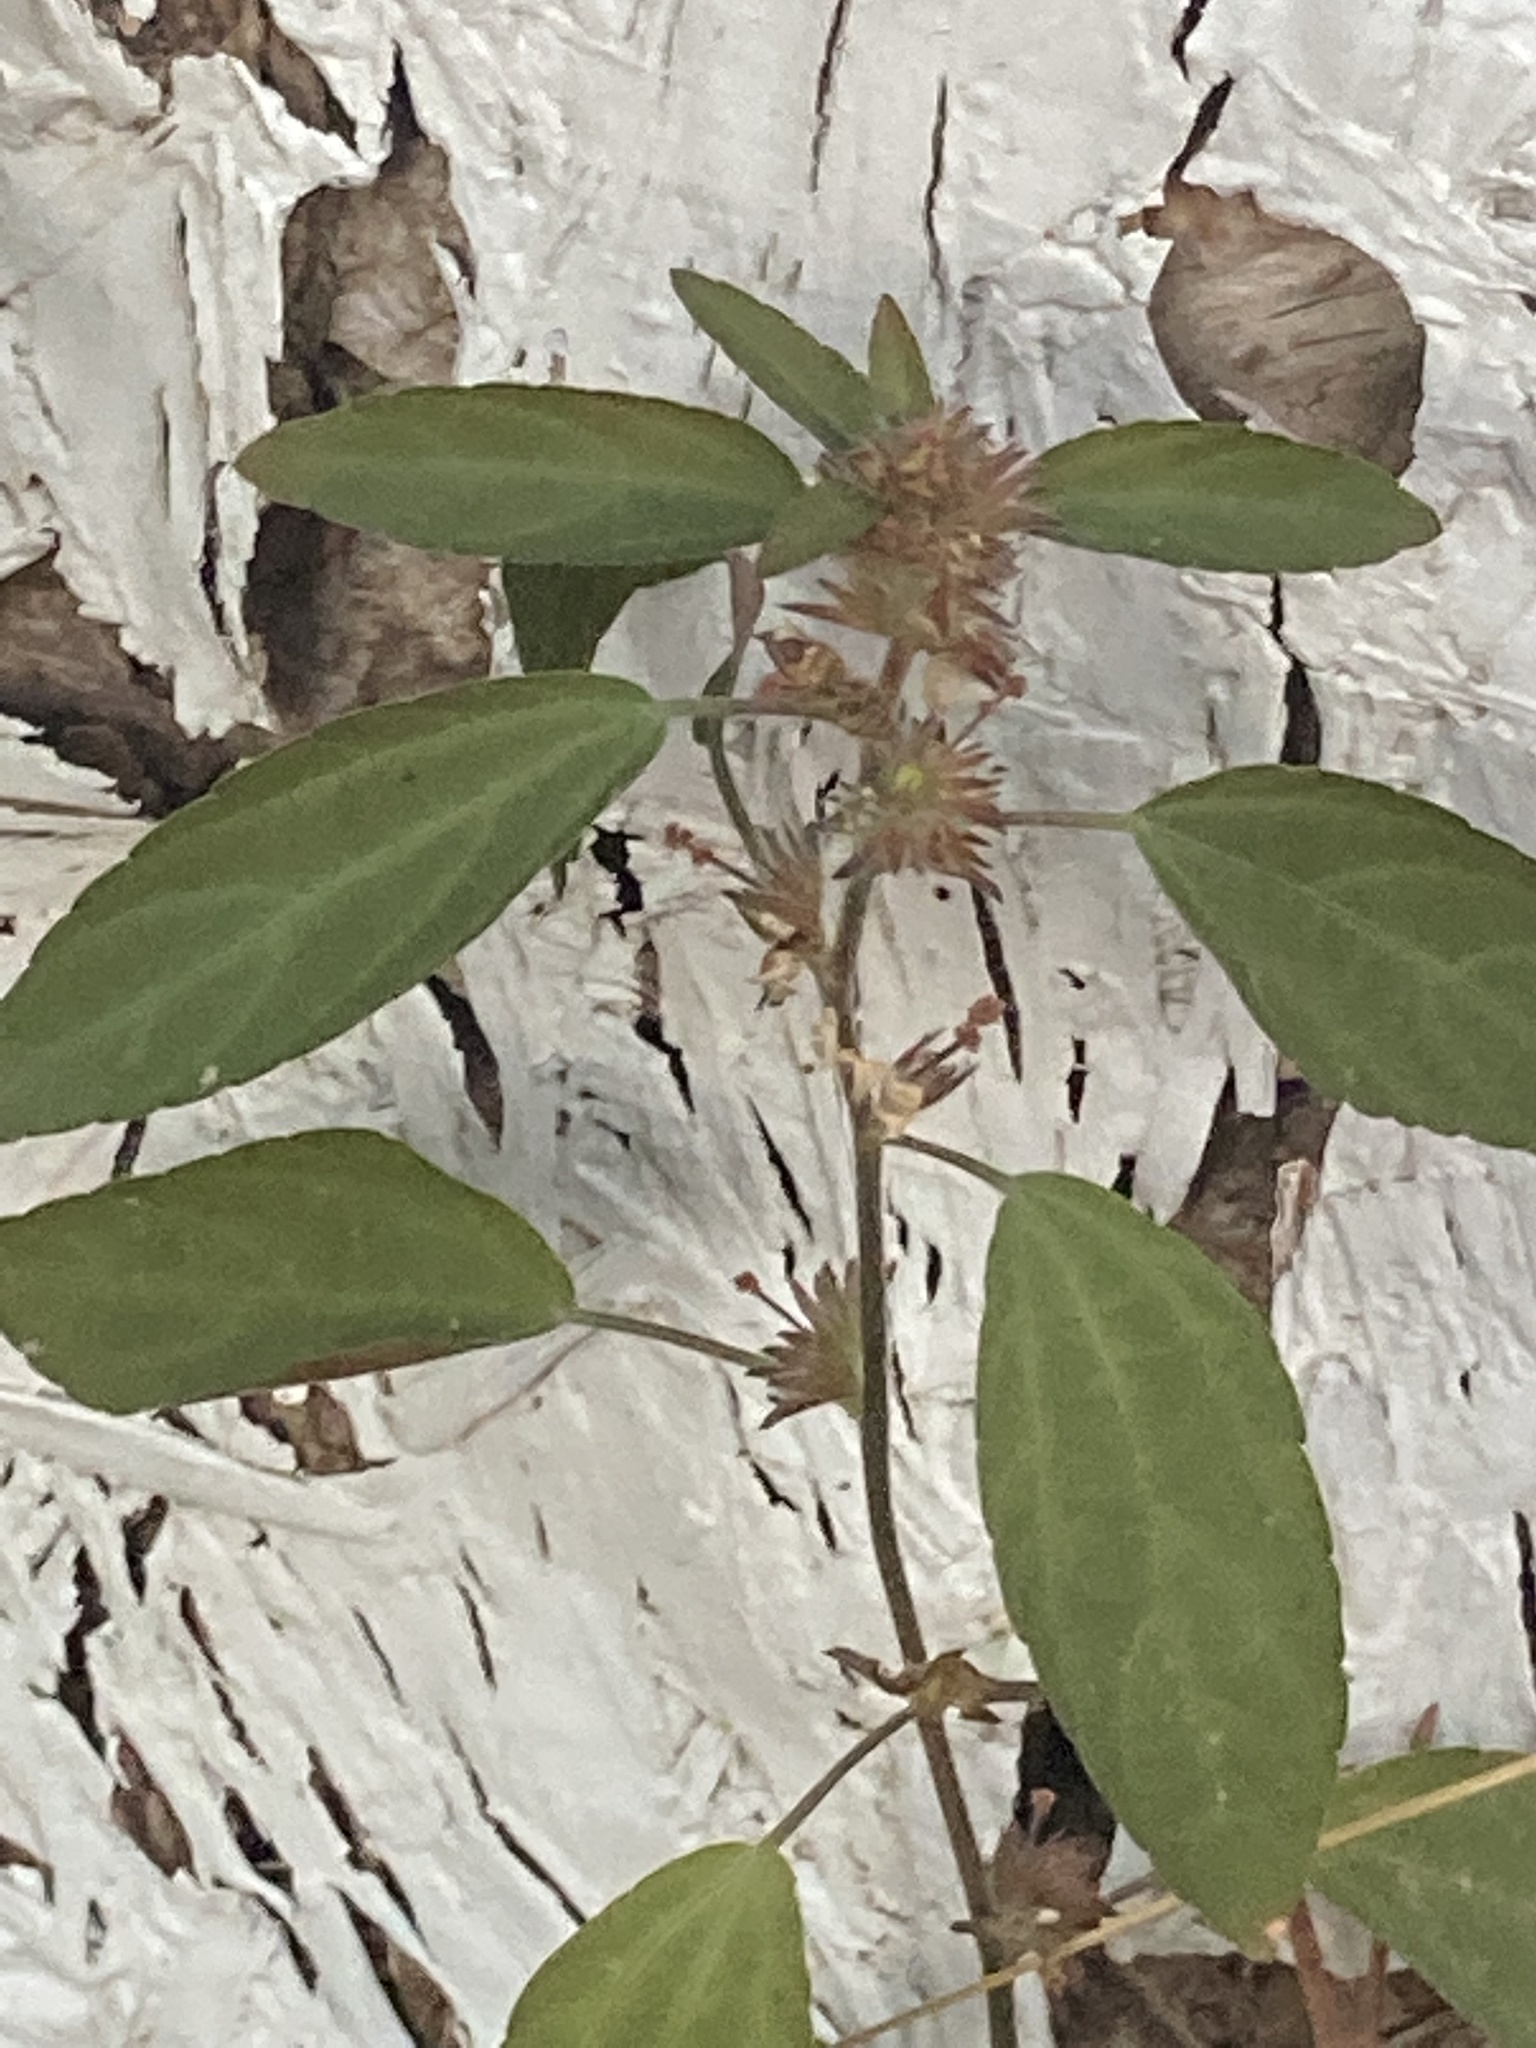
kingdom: Plantae
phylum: Tracheophyta
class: Magnoliopsida
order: Malpighiales
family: Euphorbiaceae
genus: Acalypha
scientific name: Acalypha virginica
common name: Virginia copperleaf
